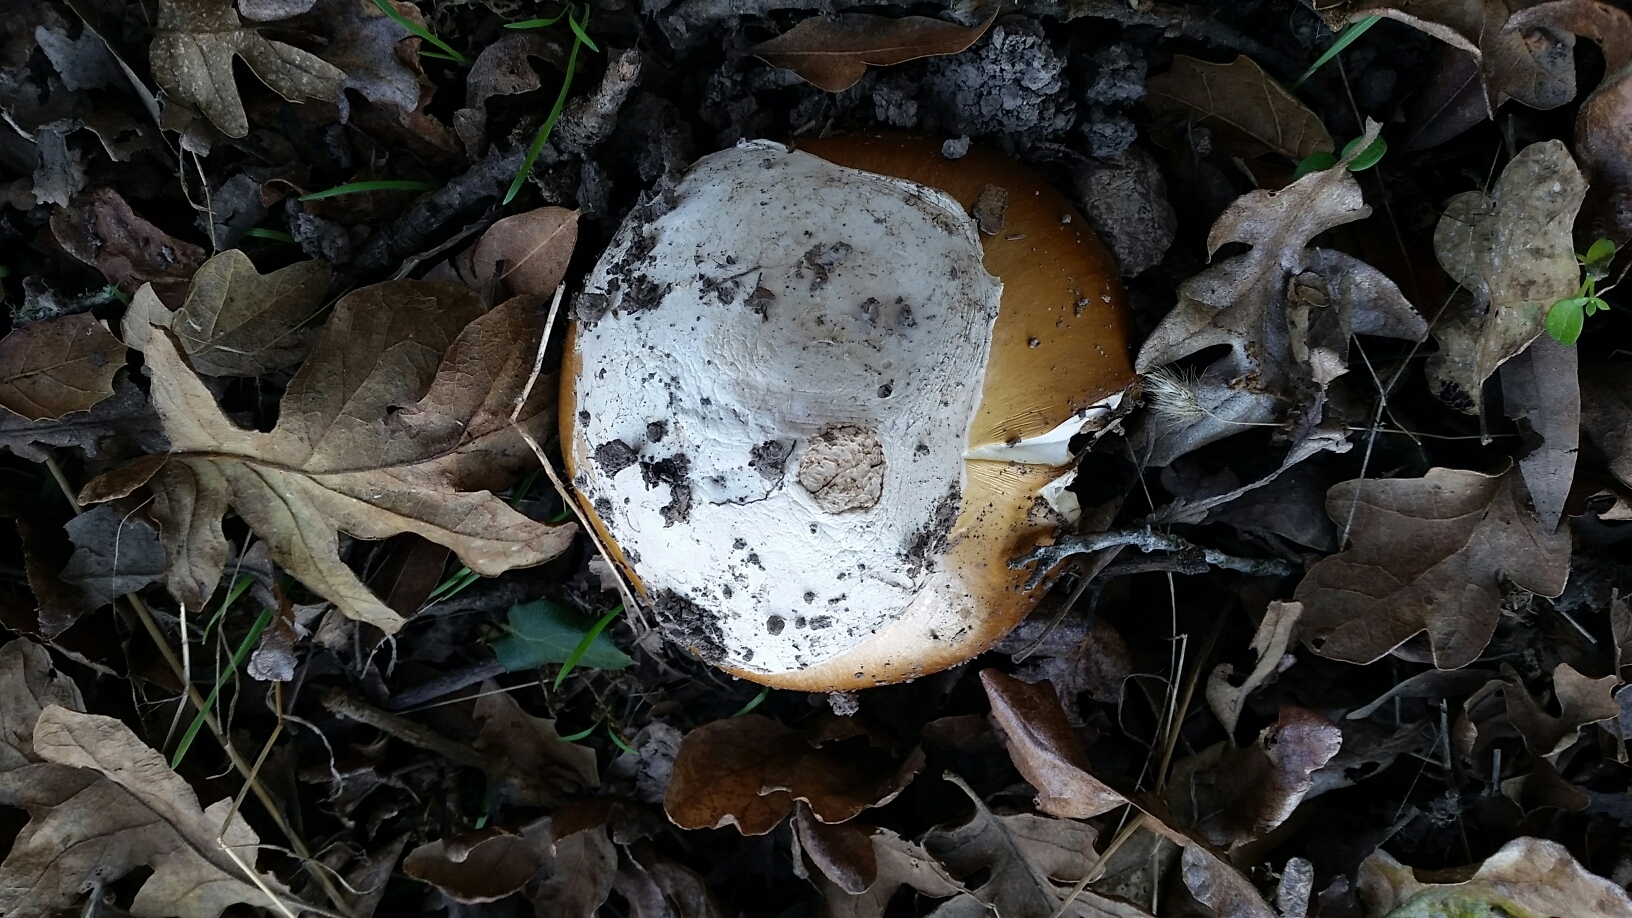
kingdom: Fungi
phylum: Basidiomycota
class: Agaricomycetes
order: Agaricales
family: Amanitaceae
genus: Amanita
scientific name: Amanita calyptroderma
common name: Coccora
